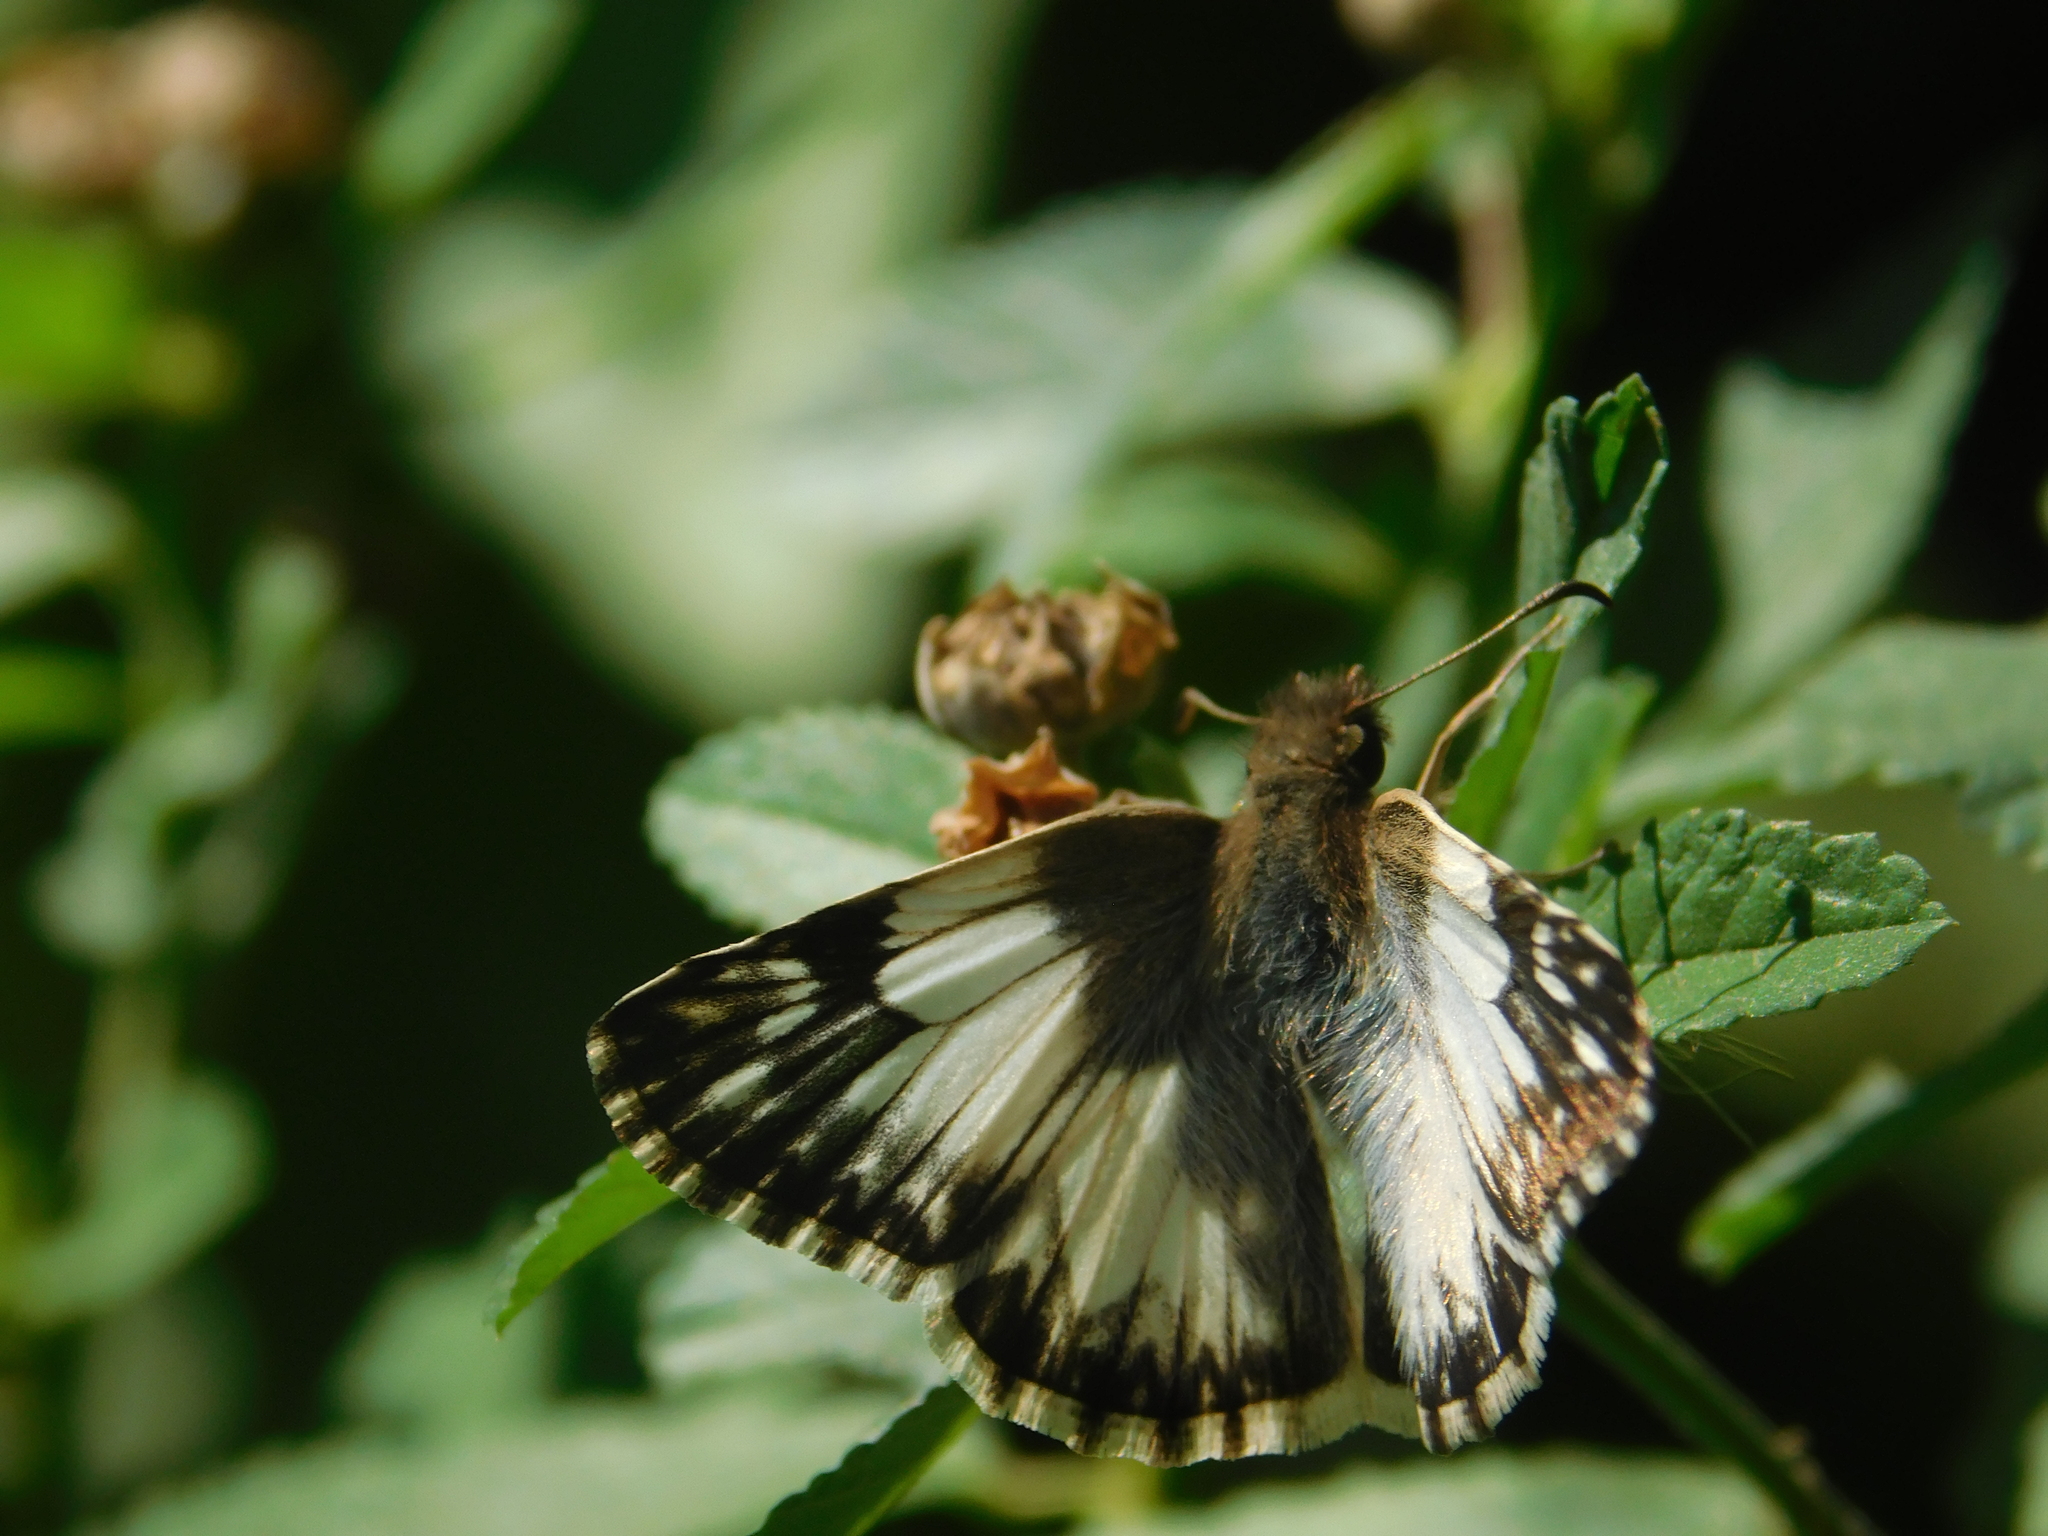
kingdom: Animalia
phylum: Arthropoda
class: Insecta
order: Lepidoptera
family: Hesperiidae
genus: Heliopetes
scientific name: Heliopetes omrina
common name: Stained white-skipper
